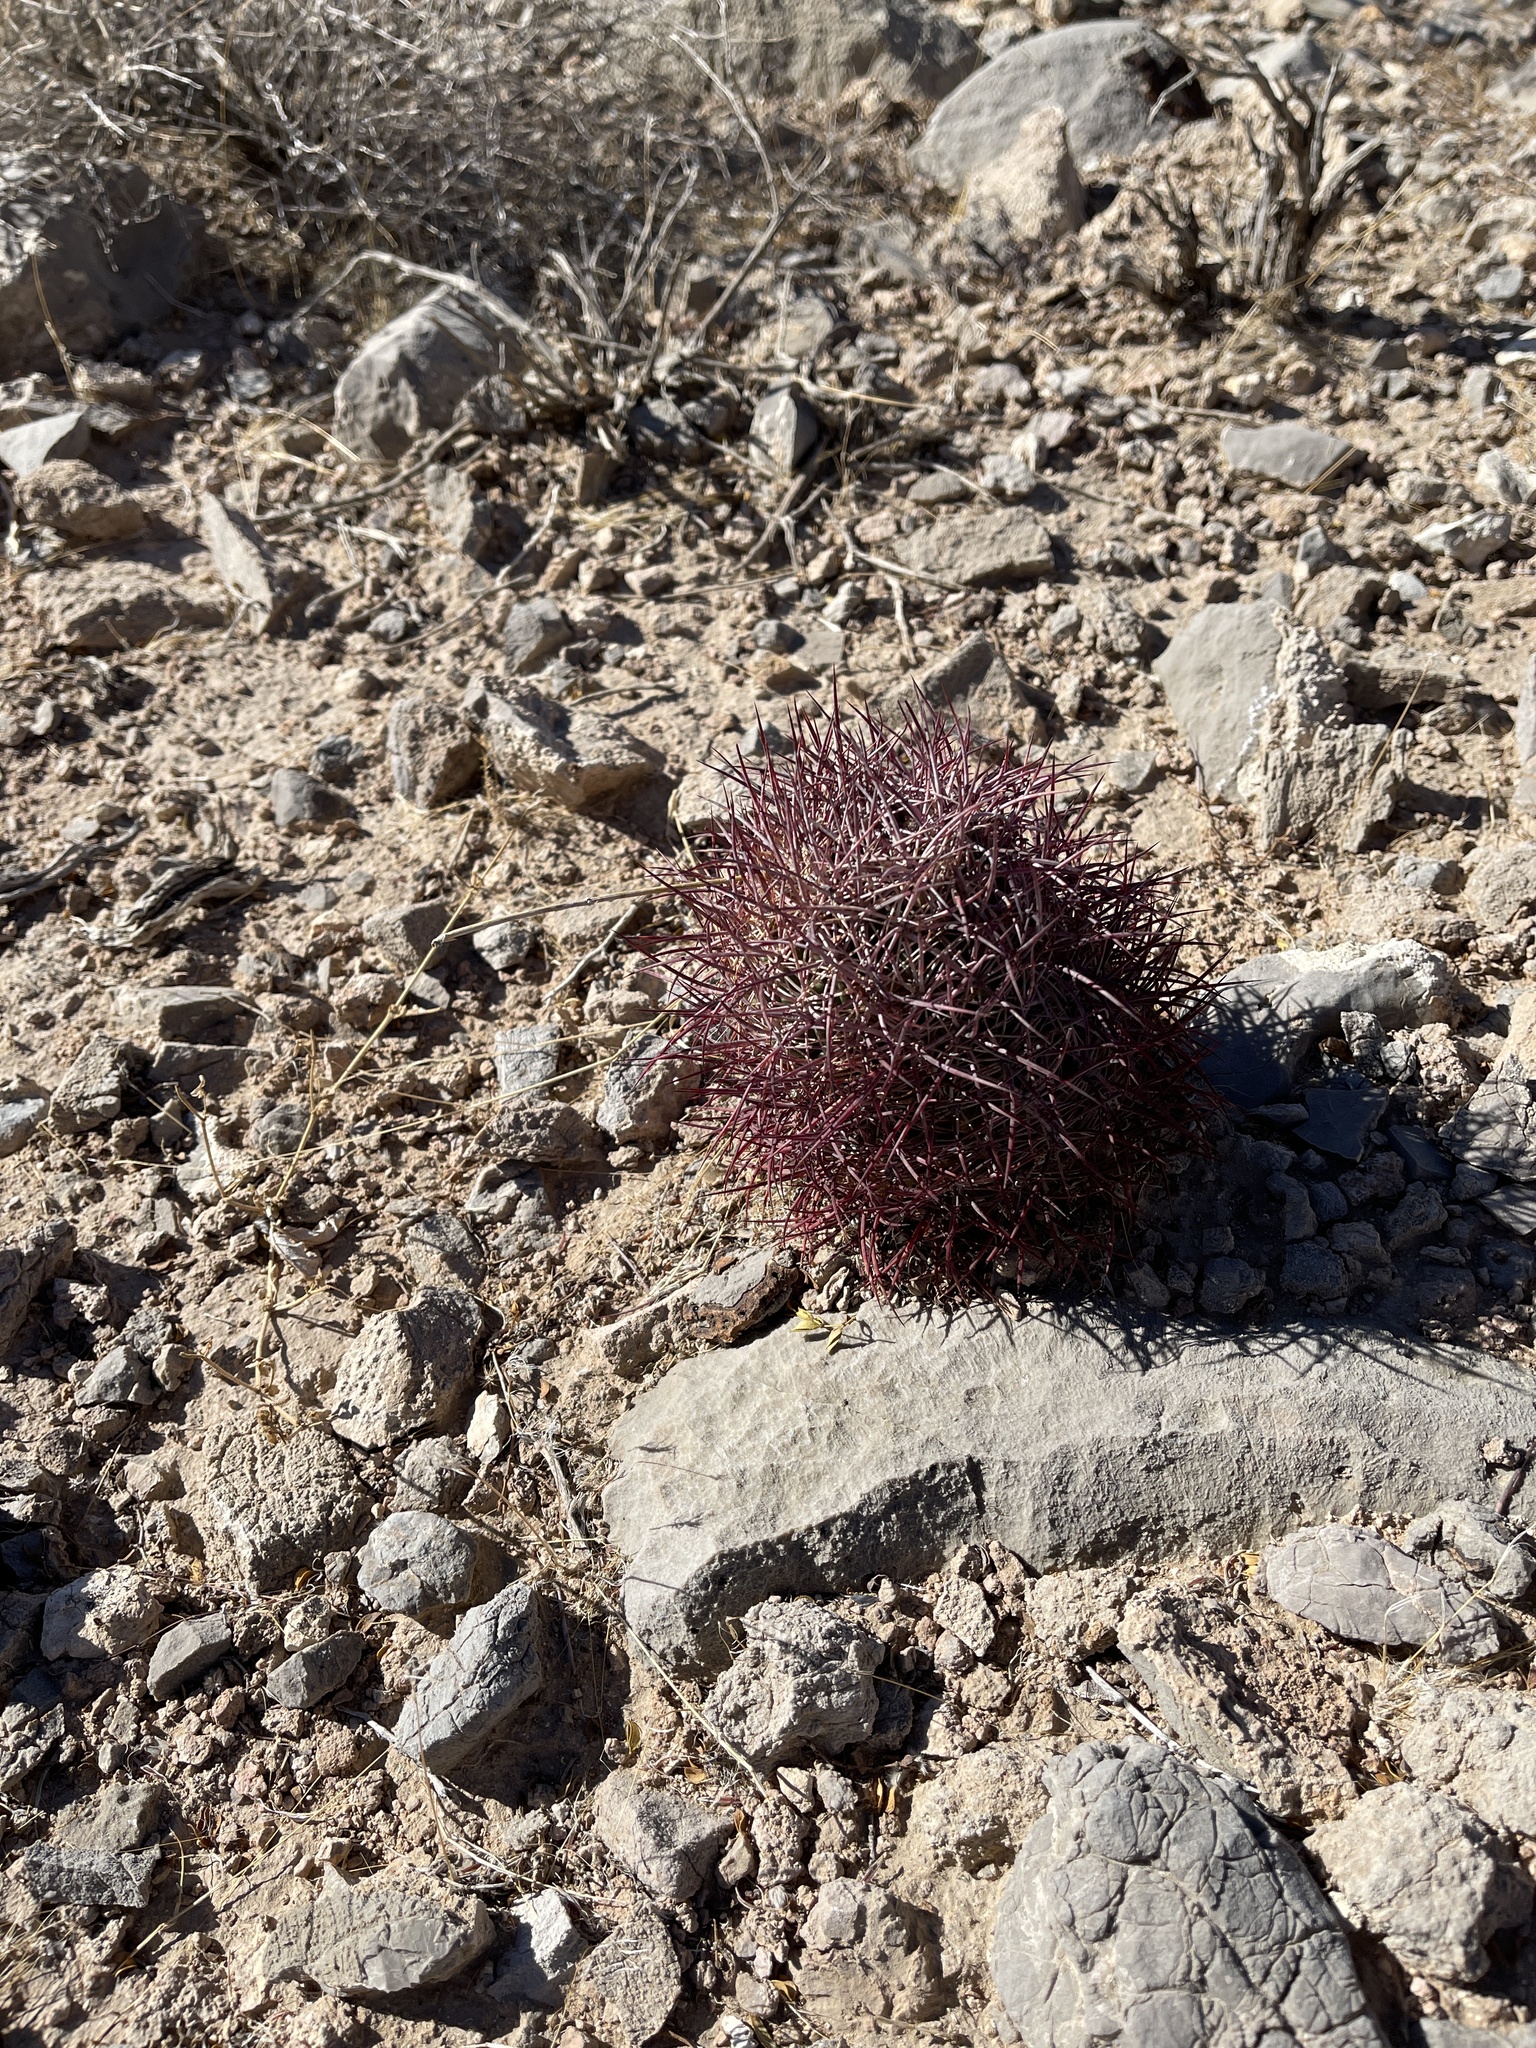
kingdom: Plantae
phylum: Tracheophyta
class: Magnoliopsida
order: Caryophyllales
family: Cactaceae
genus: Sclerocactus
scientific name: Sclerocactus johnsonii
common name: Eight-spine fishhook cactus
